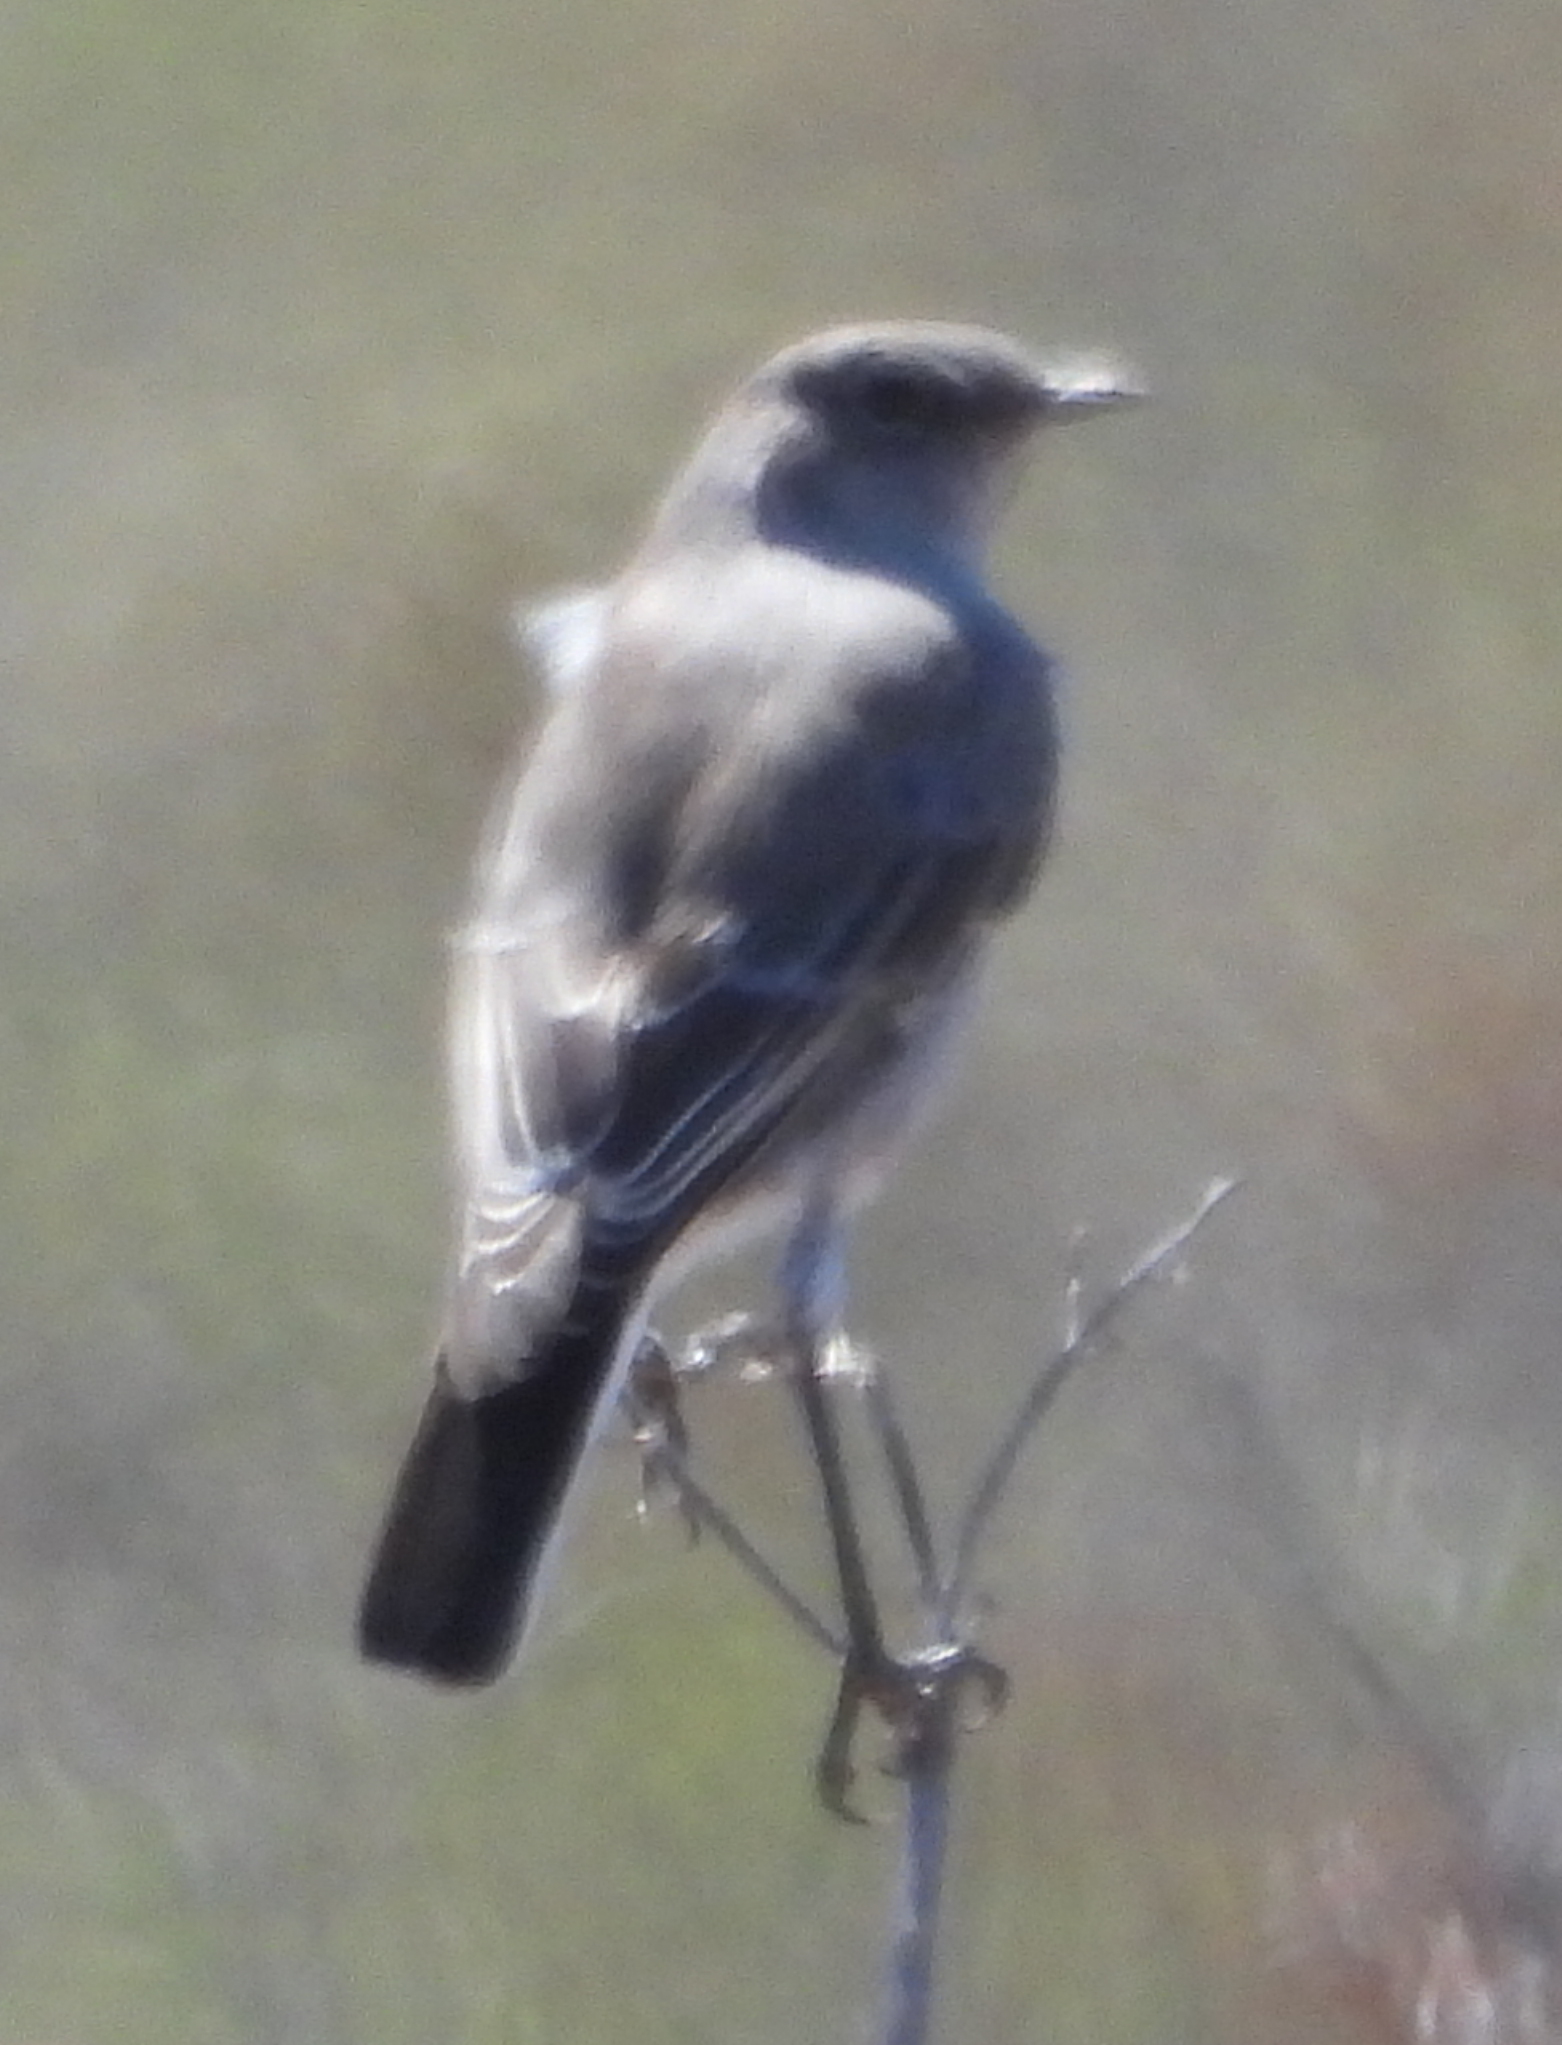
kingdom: Animalia
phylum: Chordata
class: Aves
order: Passeriformes
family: Muscicapidae
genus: Emarginata
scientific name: Emarginata schlegelii
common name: Karoo chat
